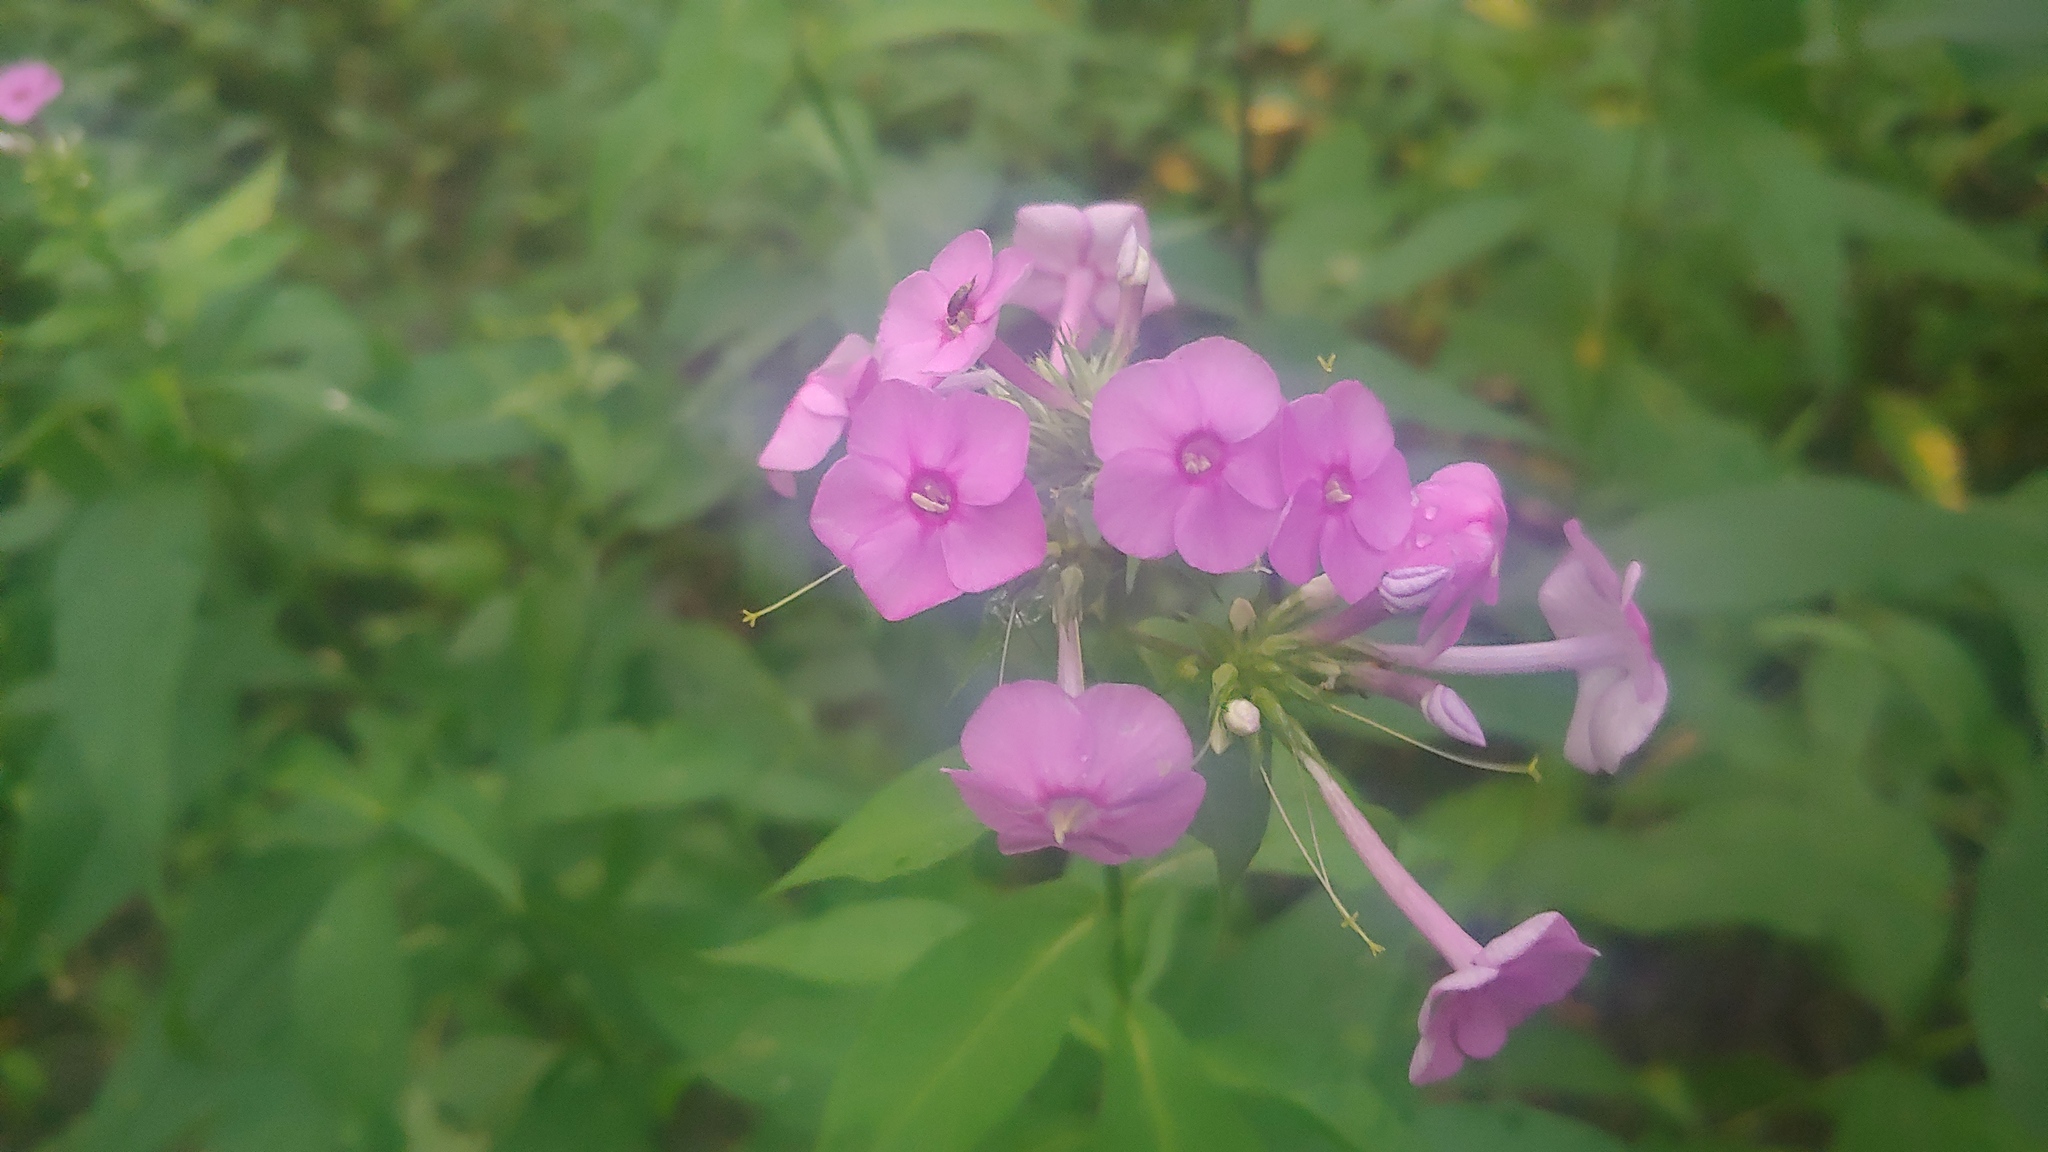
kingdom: Plantae
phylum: Tracheophyta
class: Magnoliopsida
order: Ericales
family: Polemoniaceae
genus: Phlox
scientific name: Phlox paniculata
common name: Fall phlox
